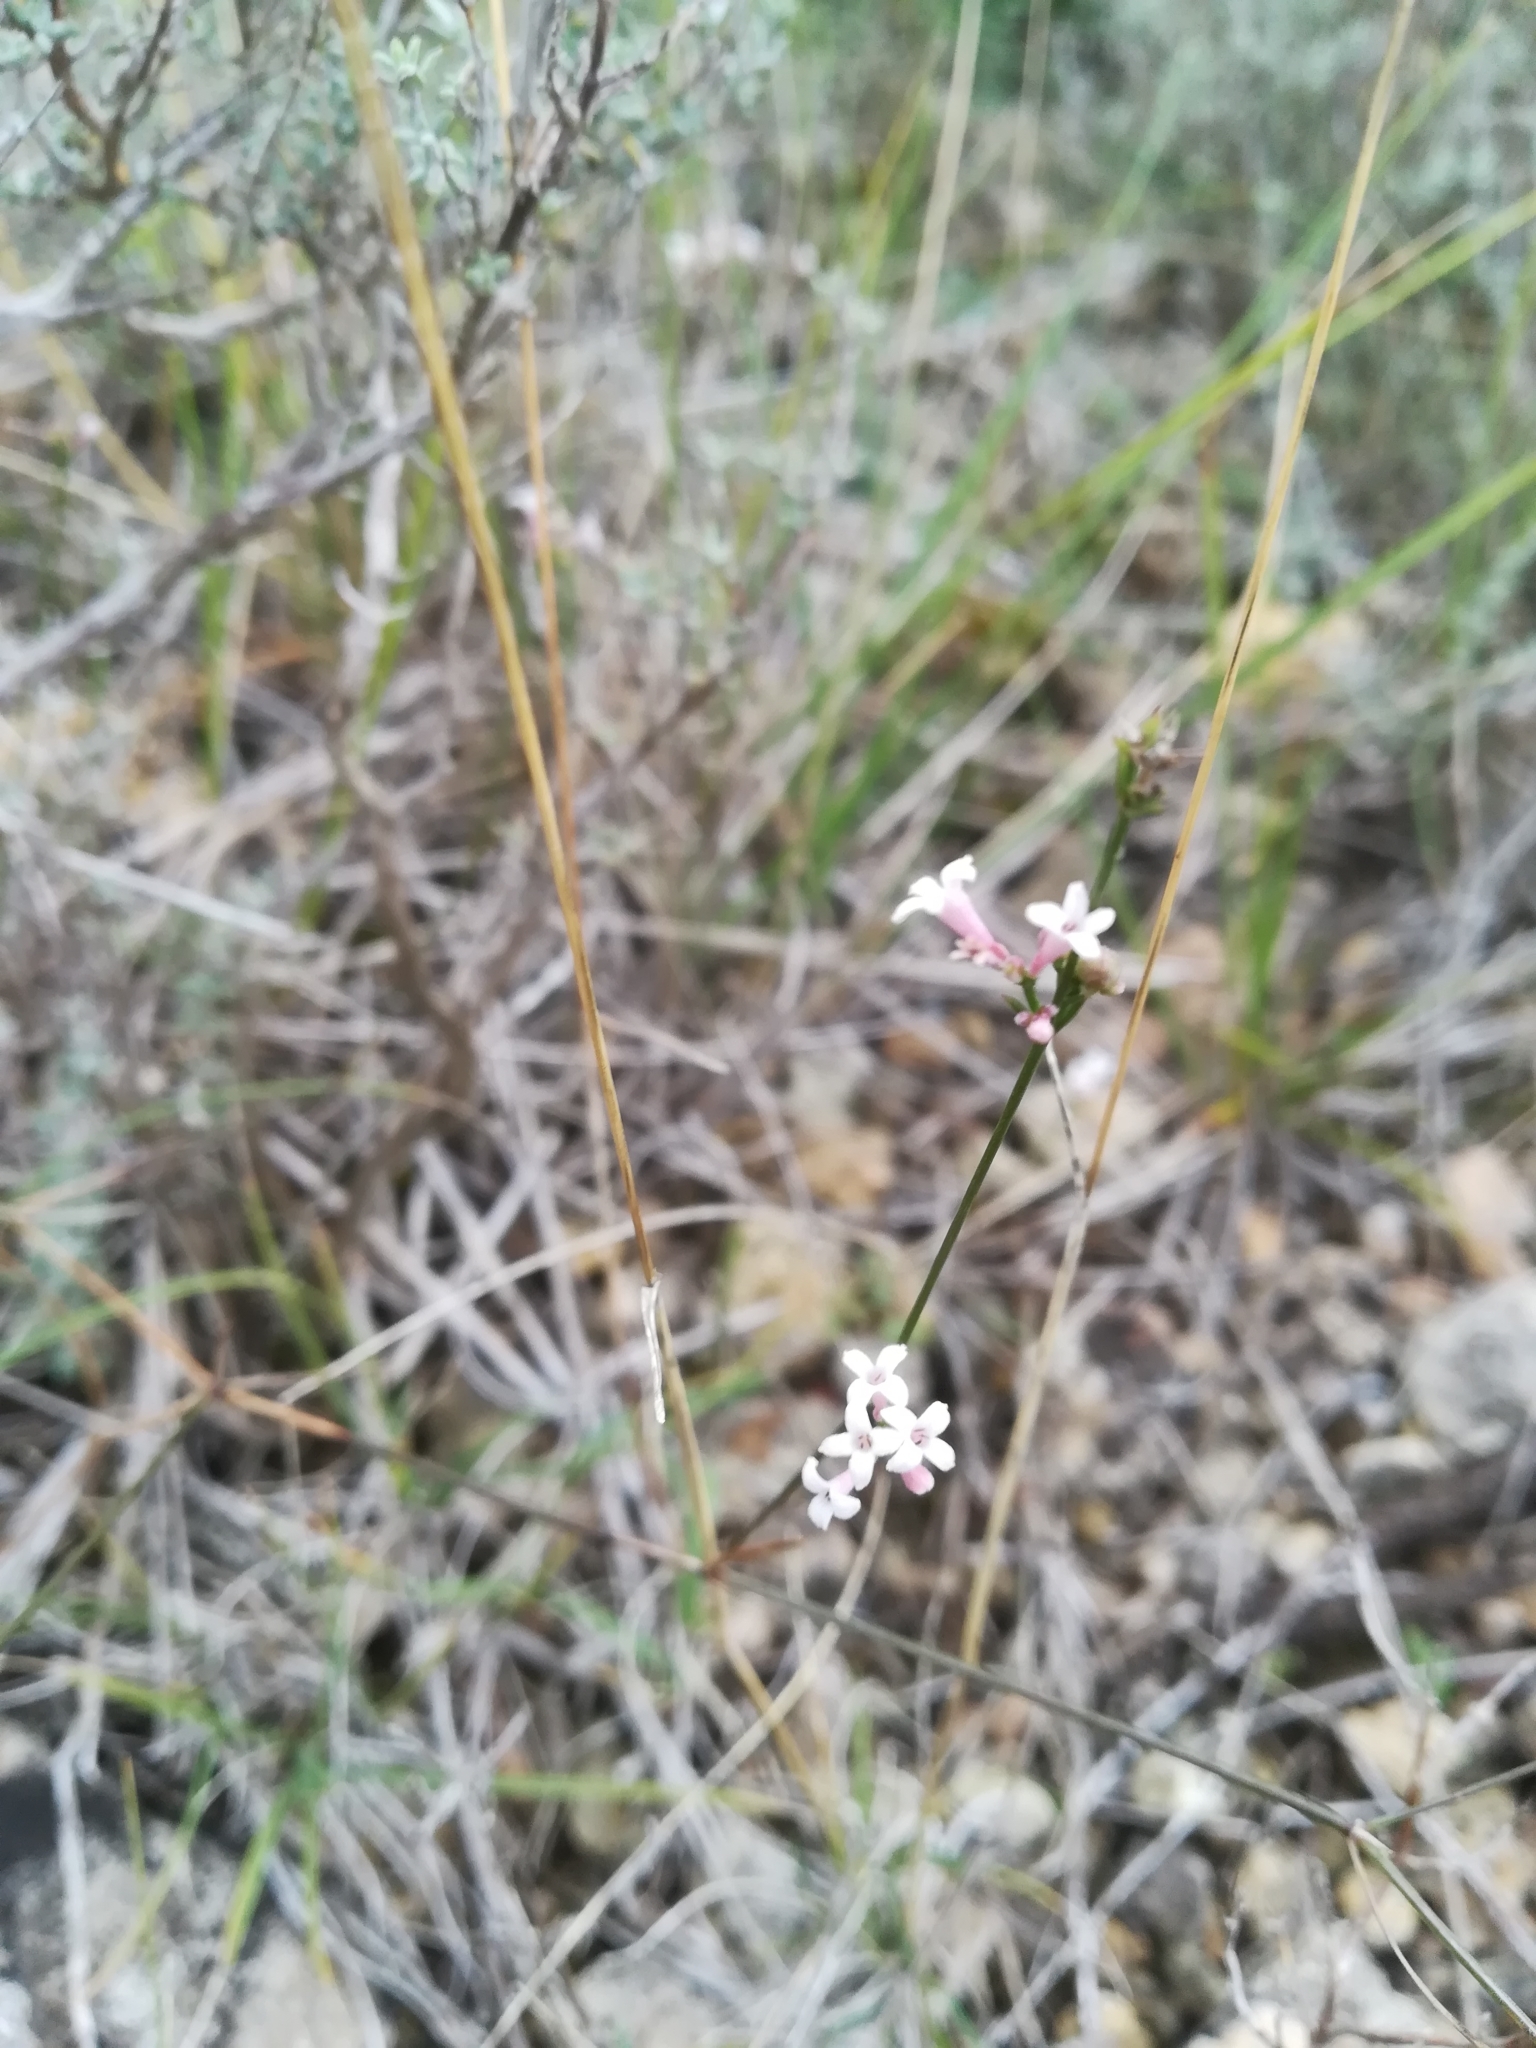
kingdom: Plantae
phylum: Tracheophyta
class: Magnoliopsida
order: Gentianales
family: Rubiaceae
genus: Cynanchica
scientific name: Cynanchica pyrenaica
